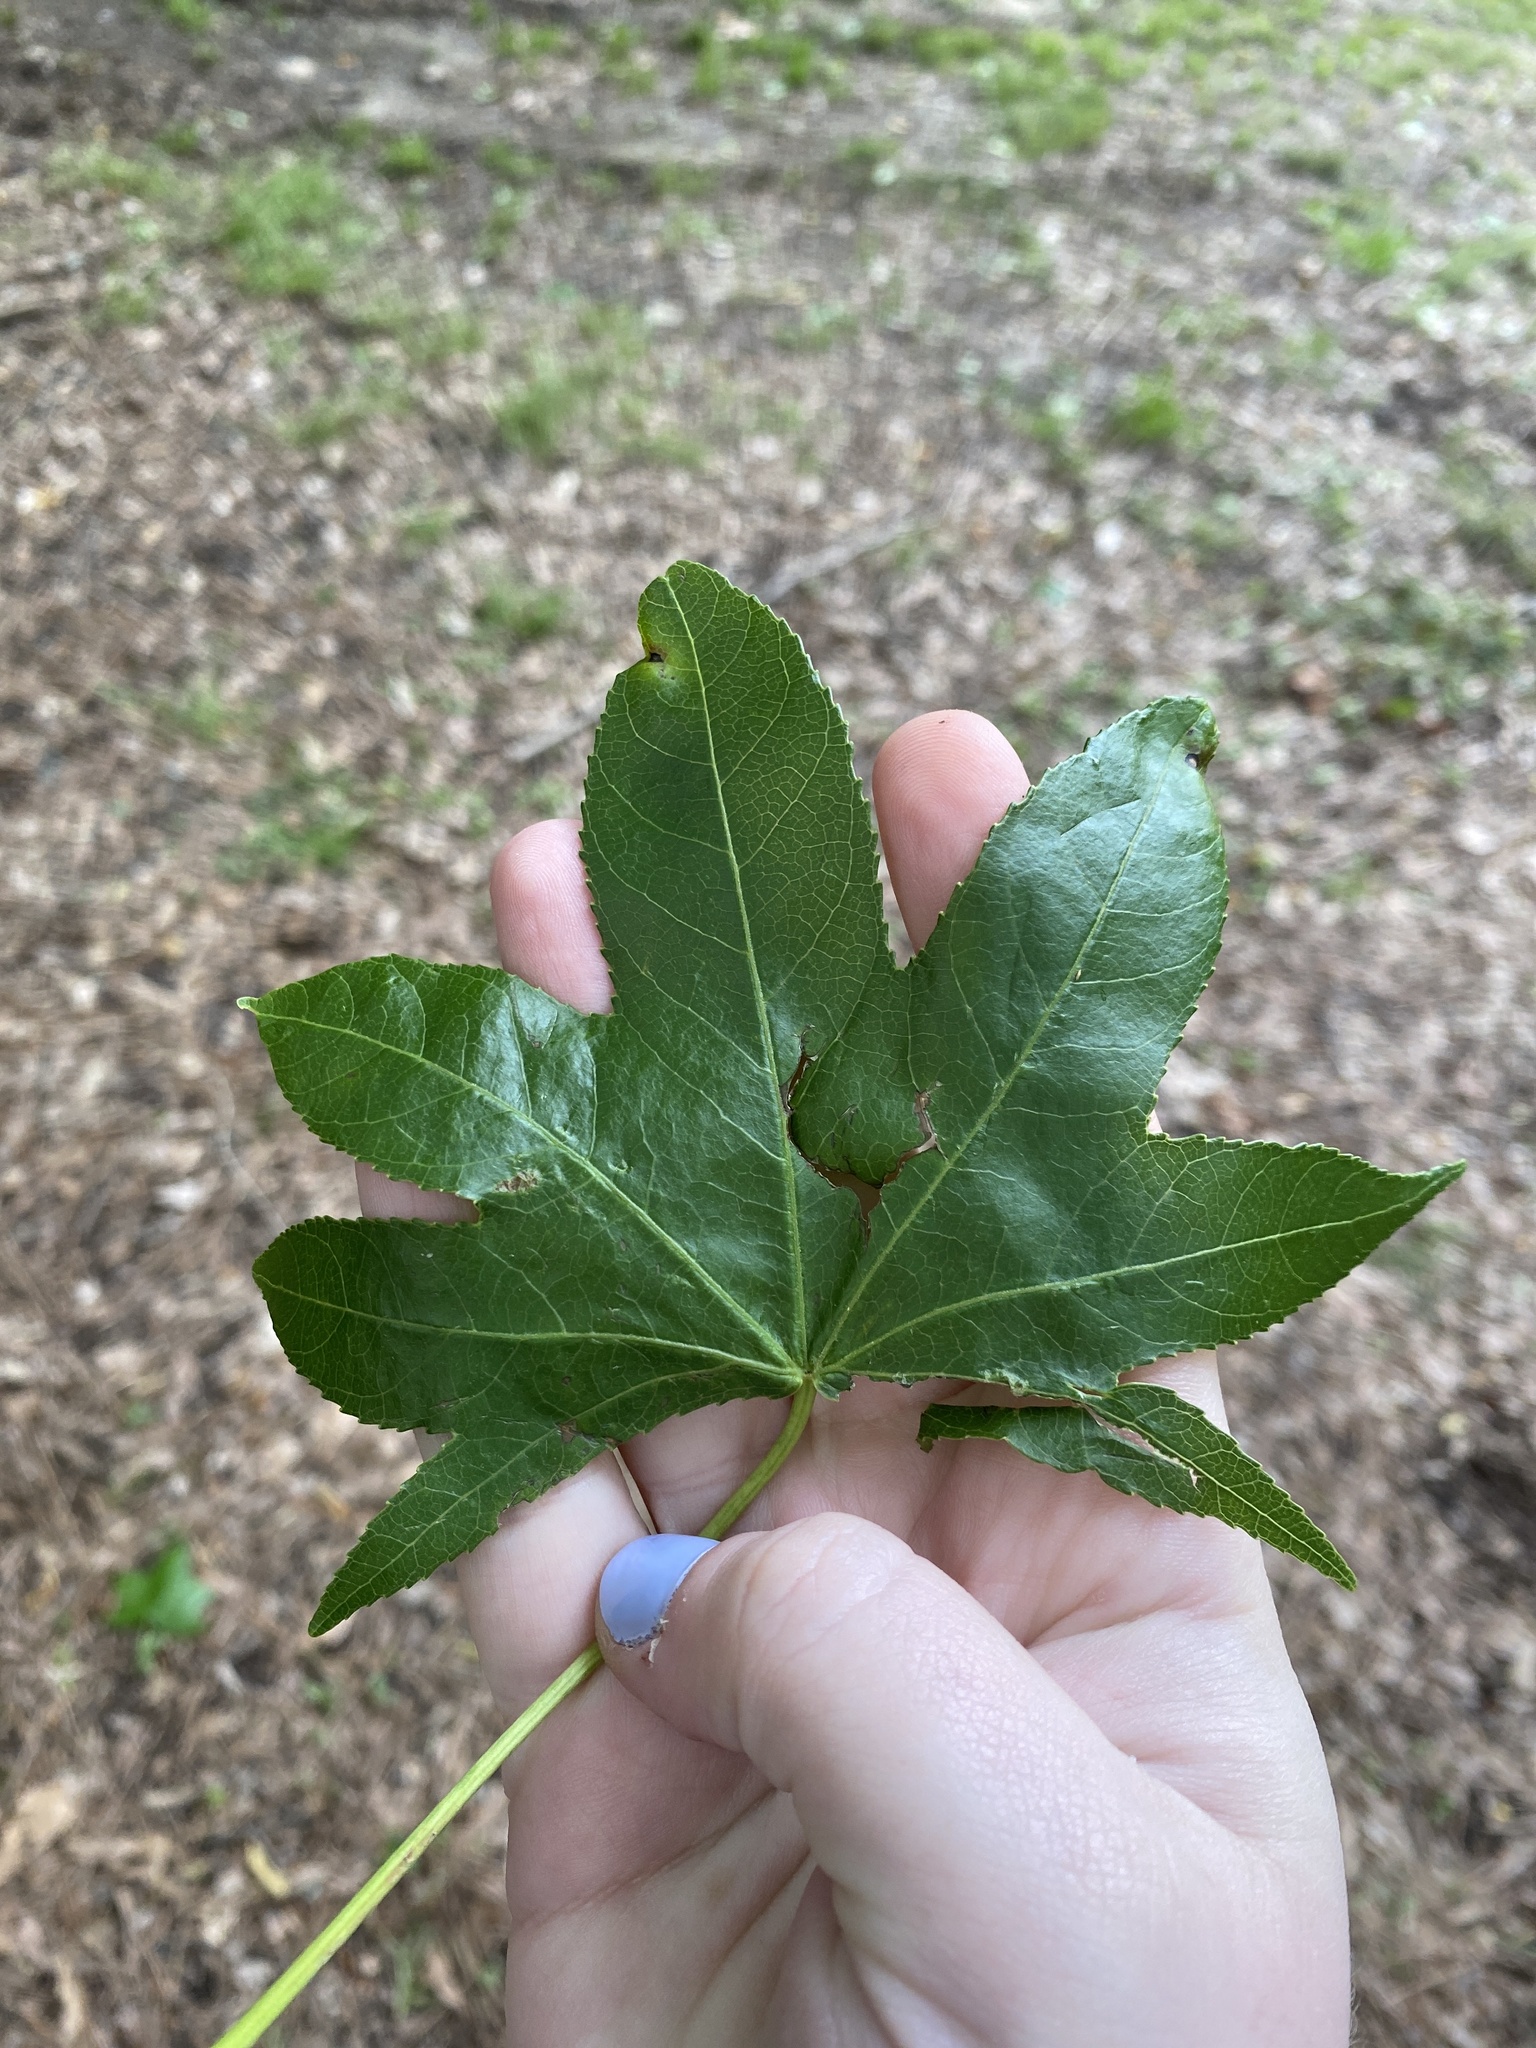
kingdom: Plantae
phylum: Tracheophyta
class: Magnoliopsida
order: Saxifragales
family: Altingiaceae
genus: Liquidambar
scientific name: Liquidambar styraciflua
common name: Sweet gum
